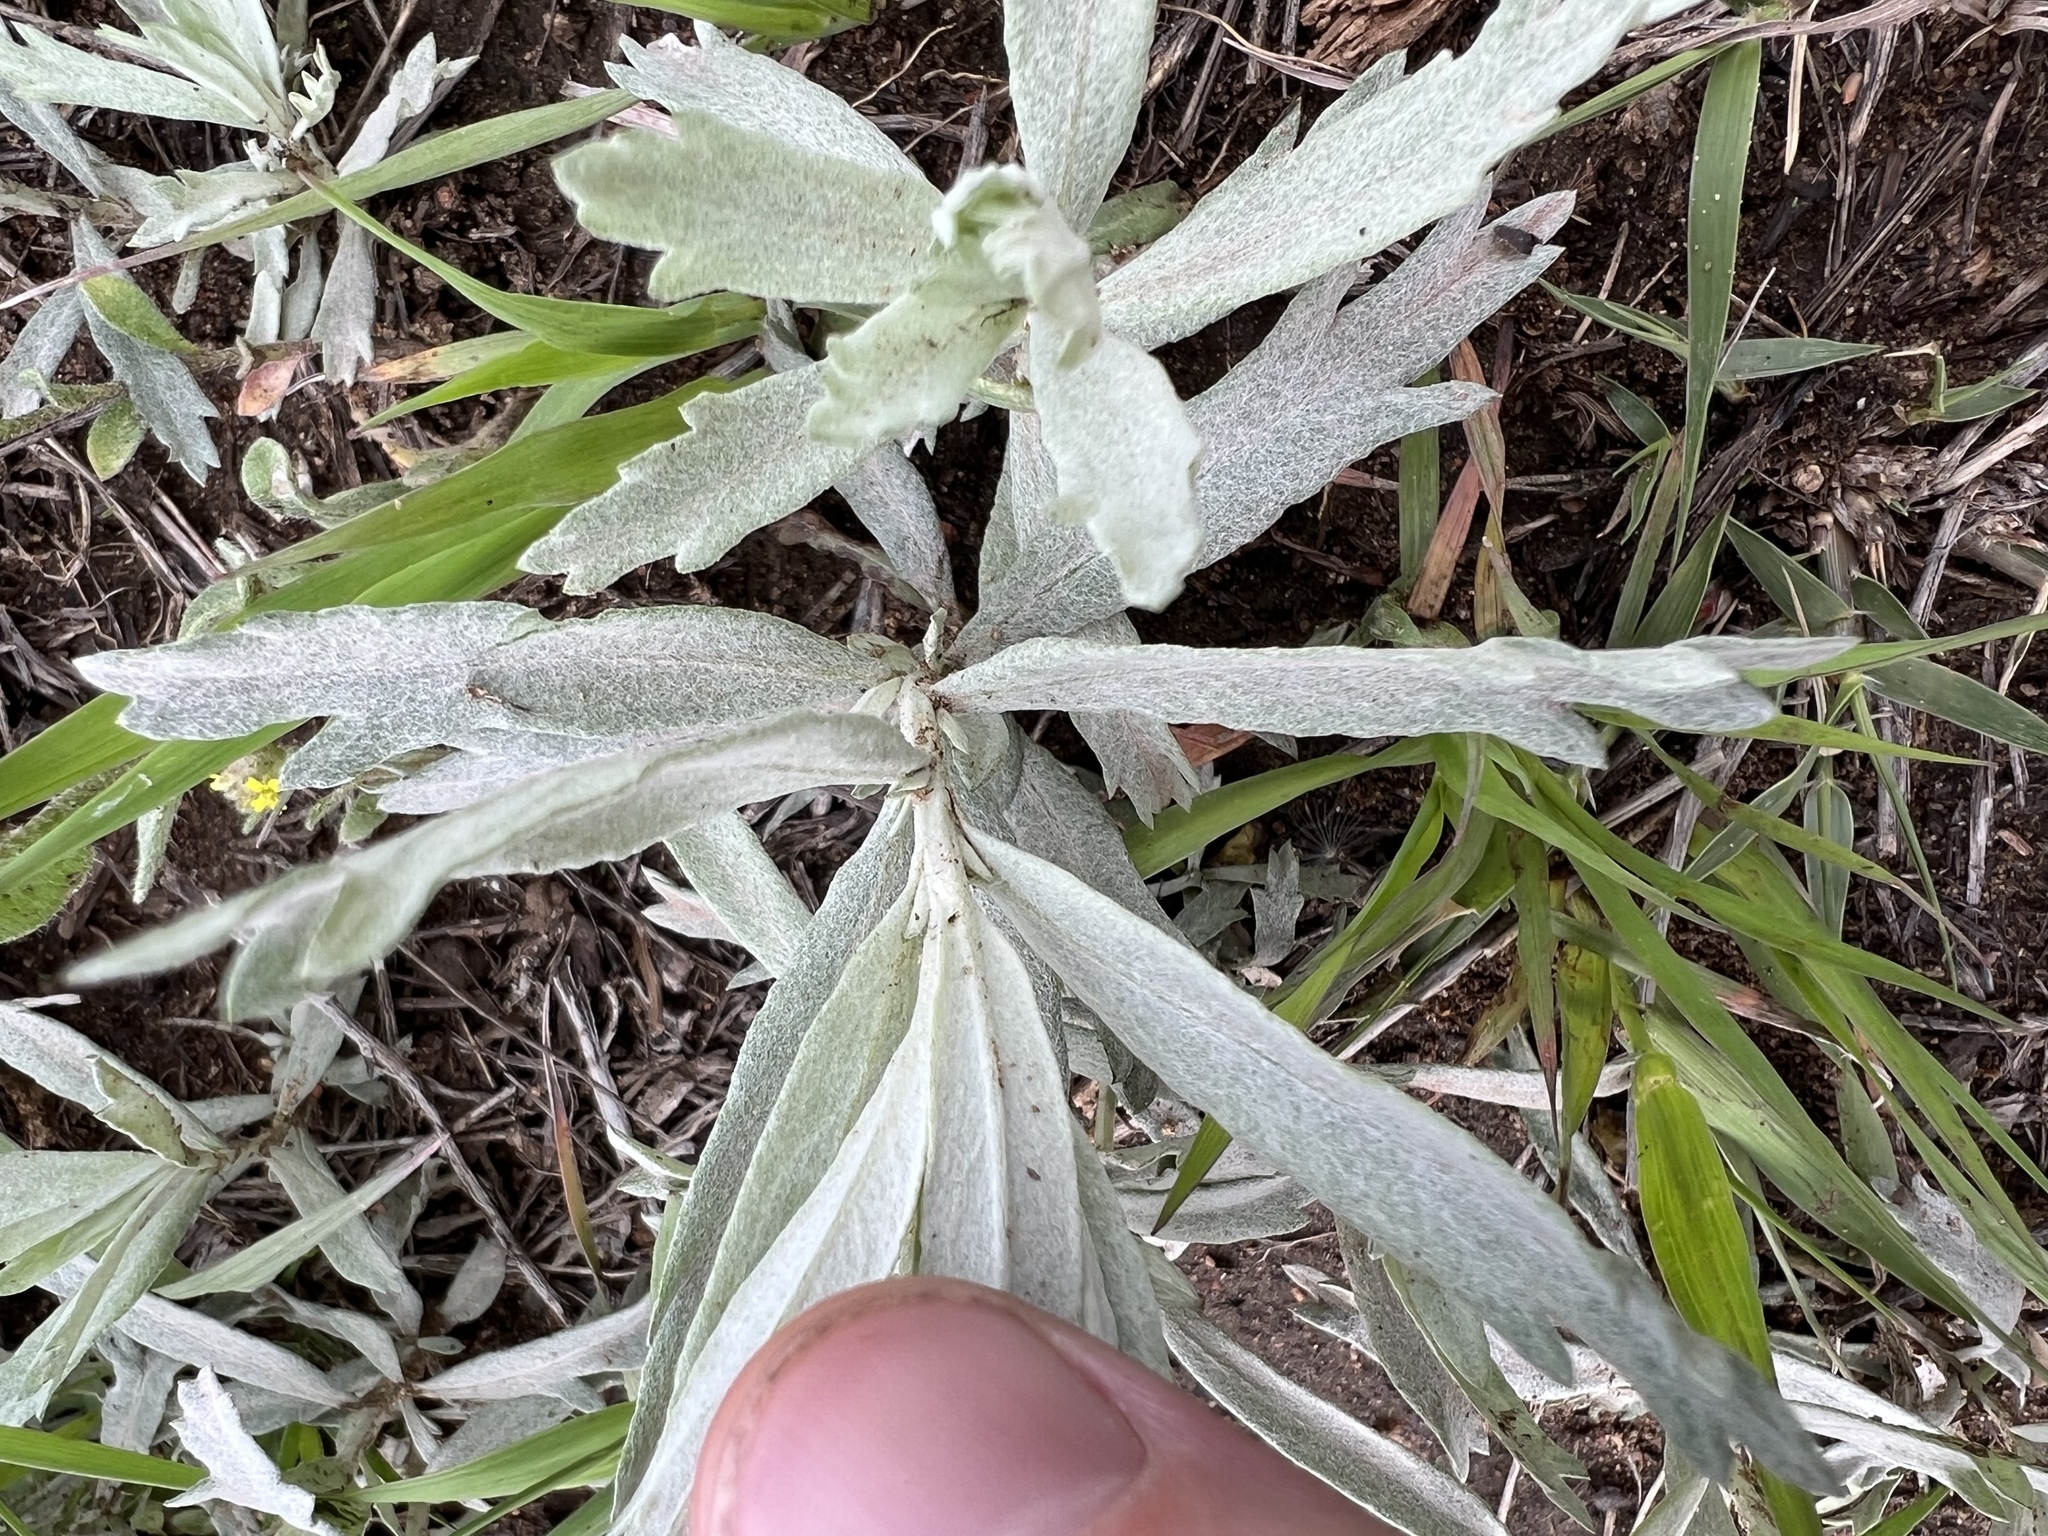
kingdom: Plantae
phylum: Tracheophyta
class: Magnoliopsida
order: Asterales
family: Asteraceae
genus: Artemisia
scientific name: Artemisia ludoviciana
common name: Western mugwort
